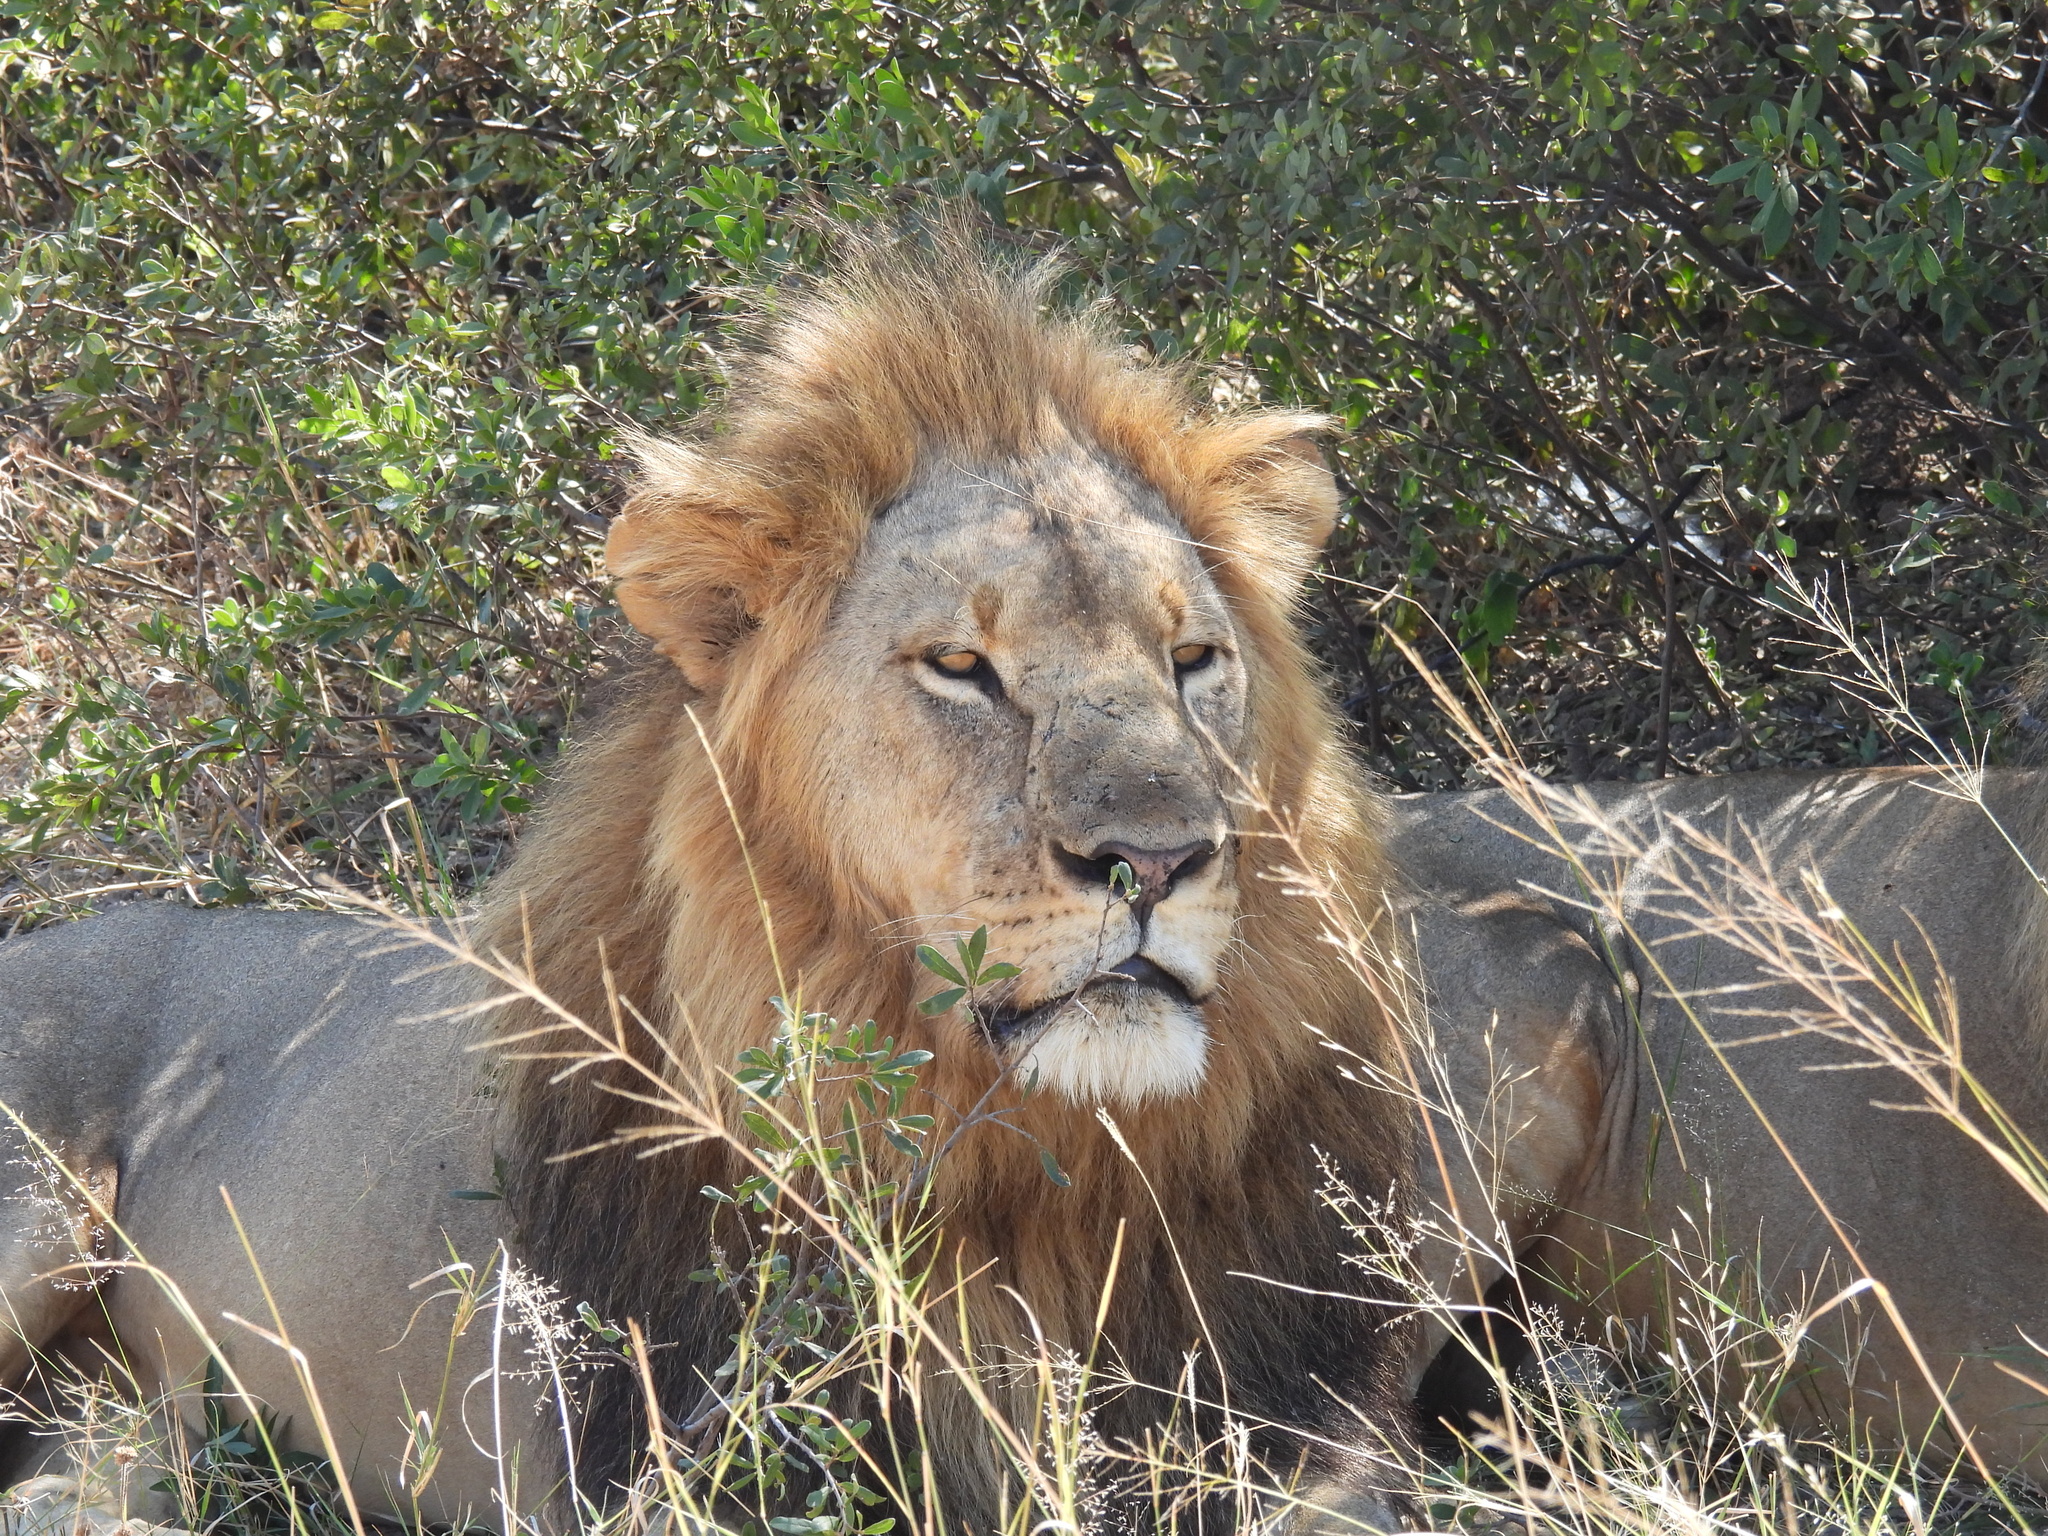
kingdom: Animalia
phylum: Chordata
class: Mammalia
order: Carnivora
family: Felidae
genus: Panthera
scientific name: Panthera leo
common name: Lion
